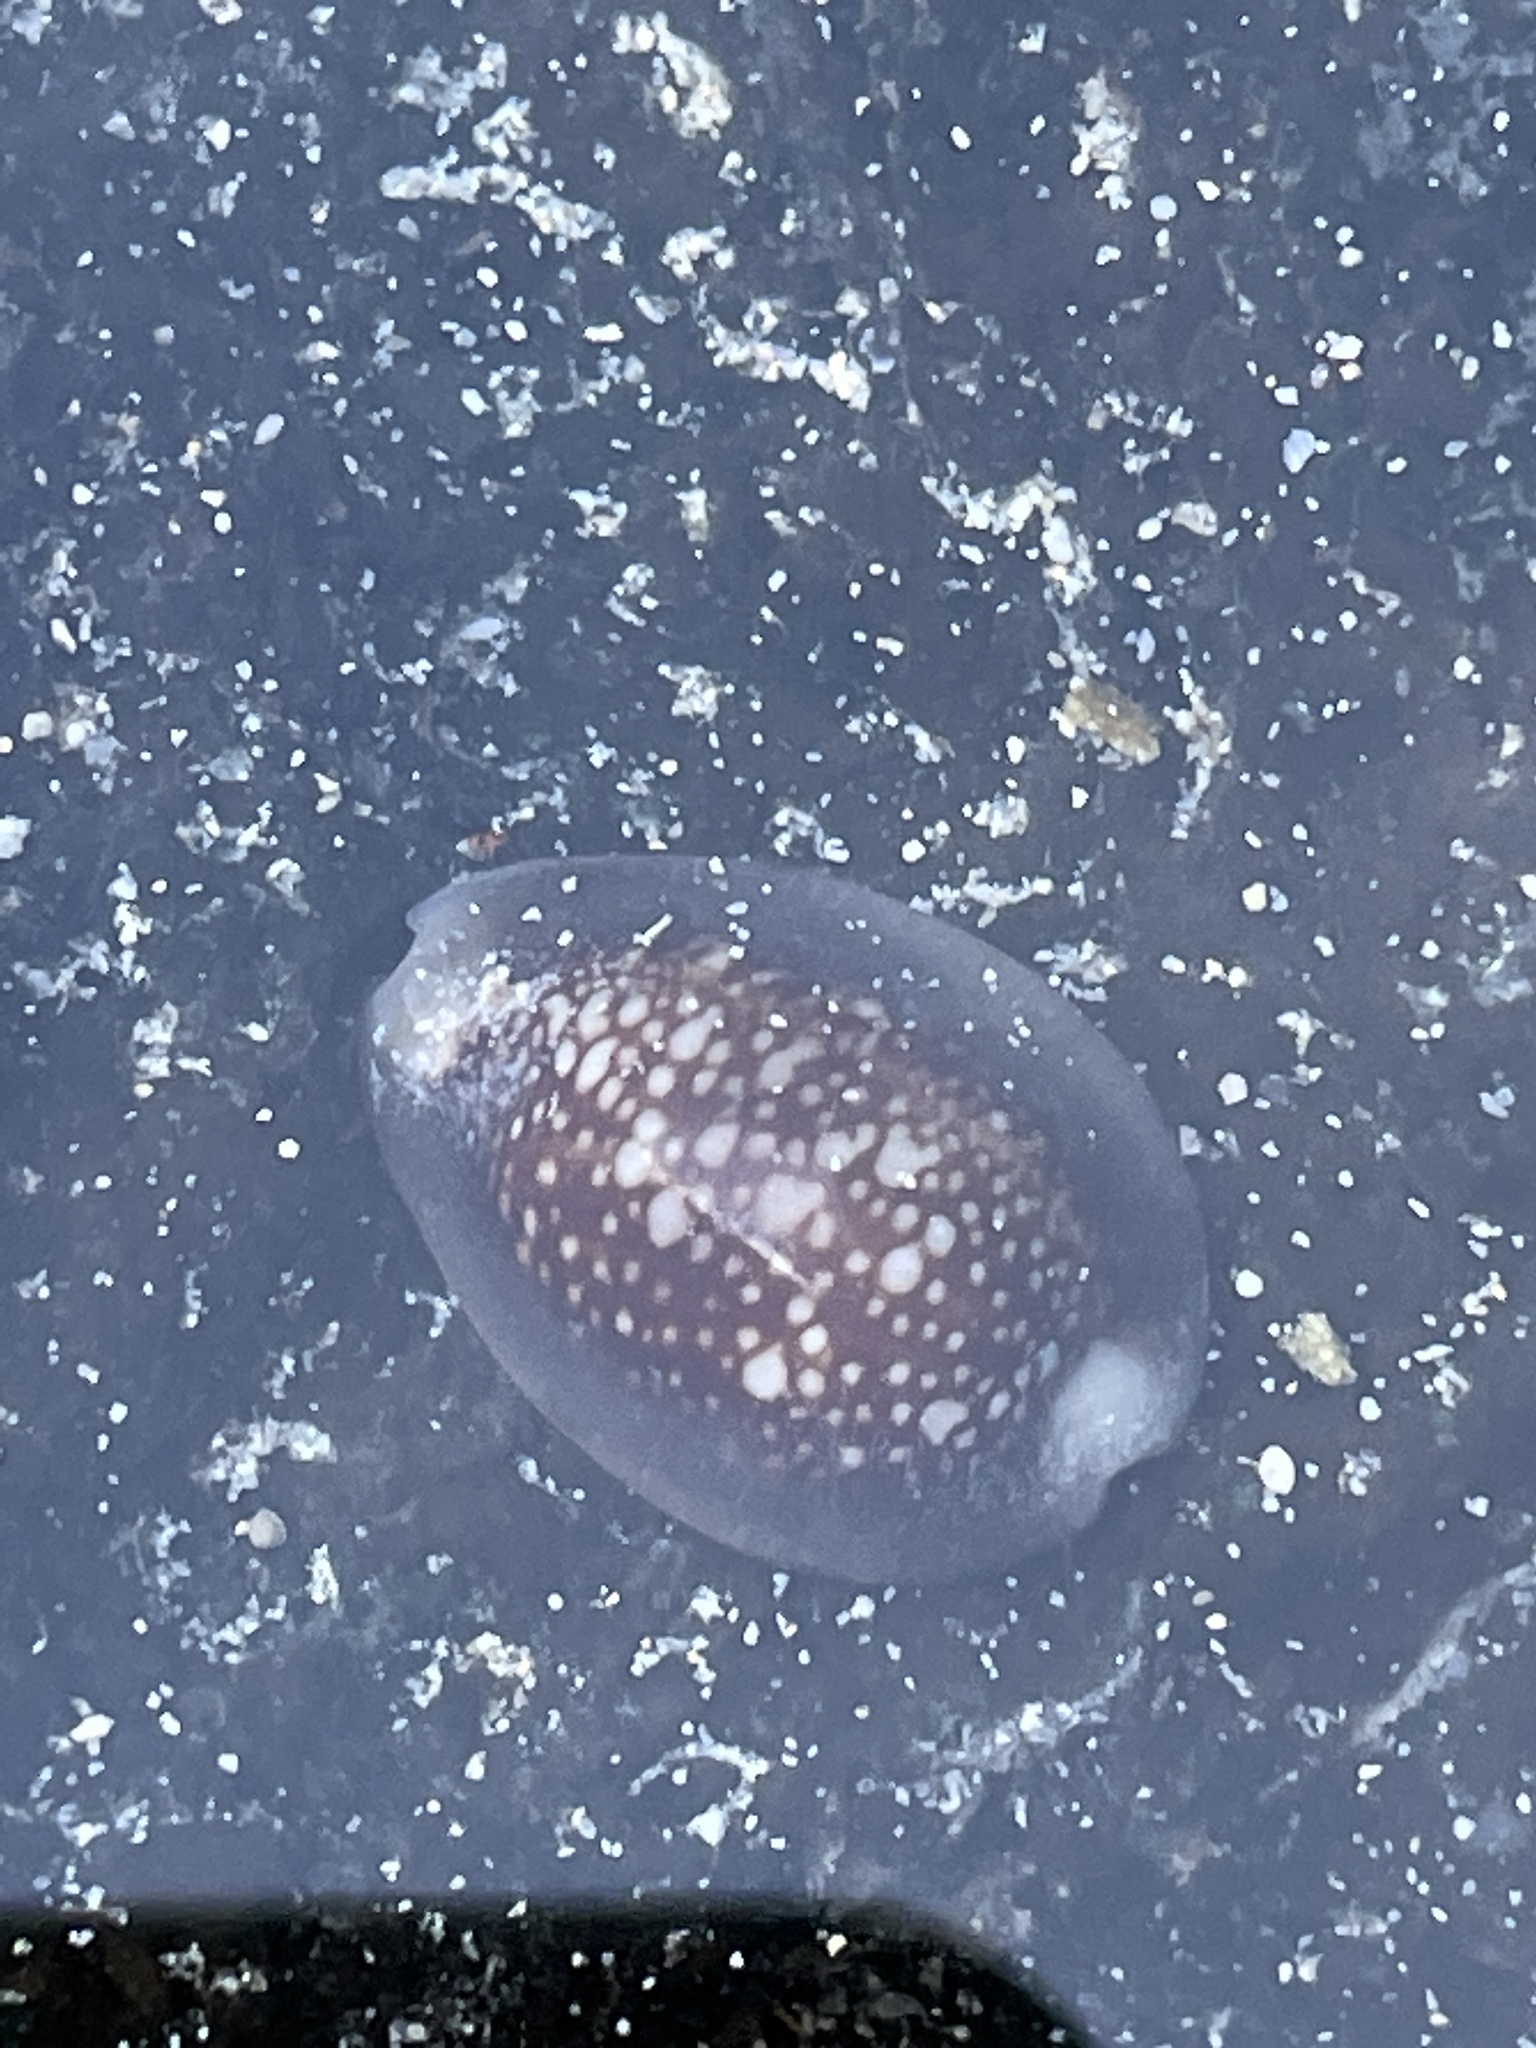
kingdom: Animalia
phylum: Mollusca
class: Gastropoda
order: Littorinimorpha
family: Cypraeidae
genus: Monetaria
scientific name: Monetaria caputophidii
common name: Snake's head cowry
